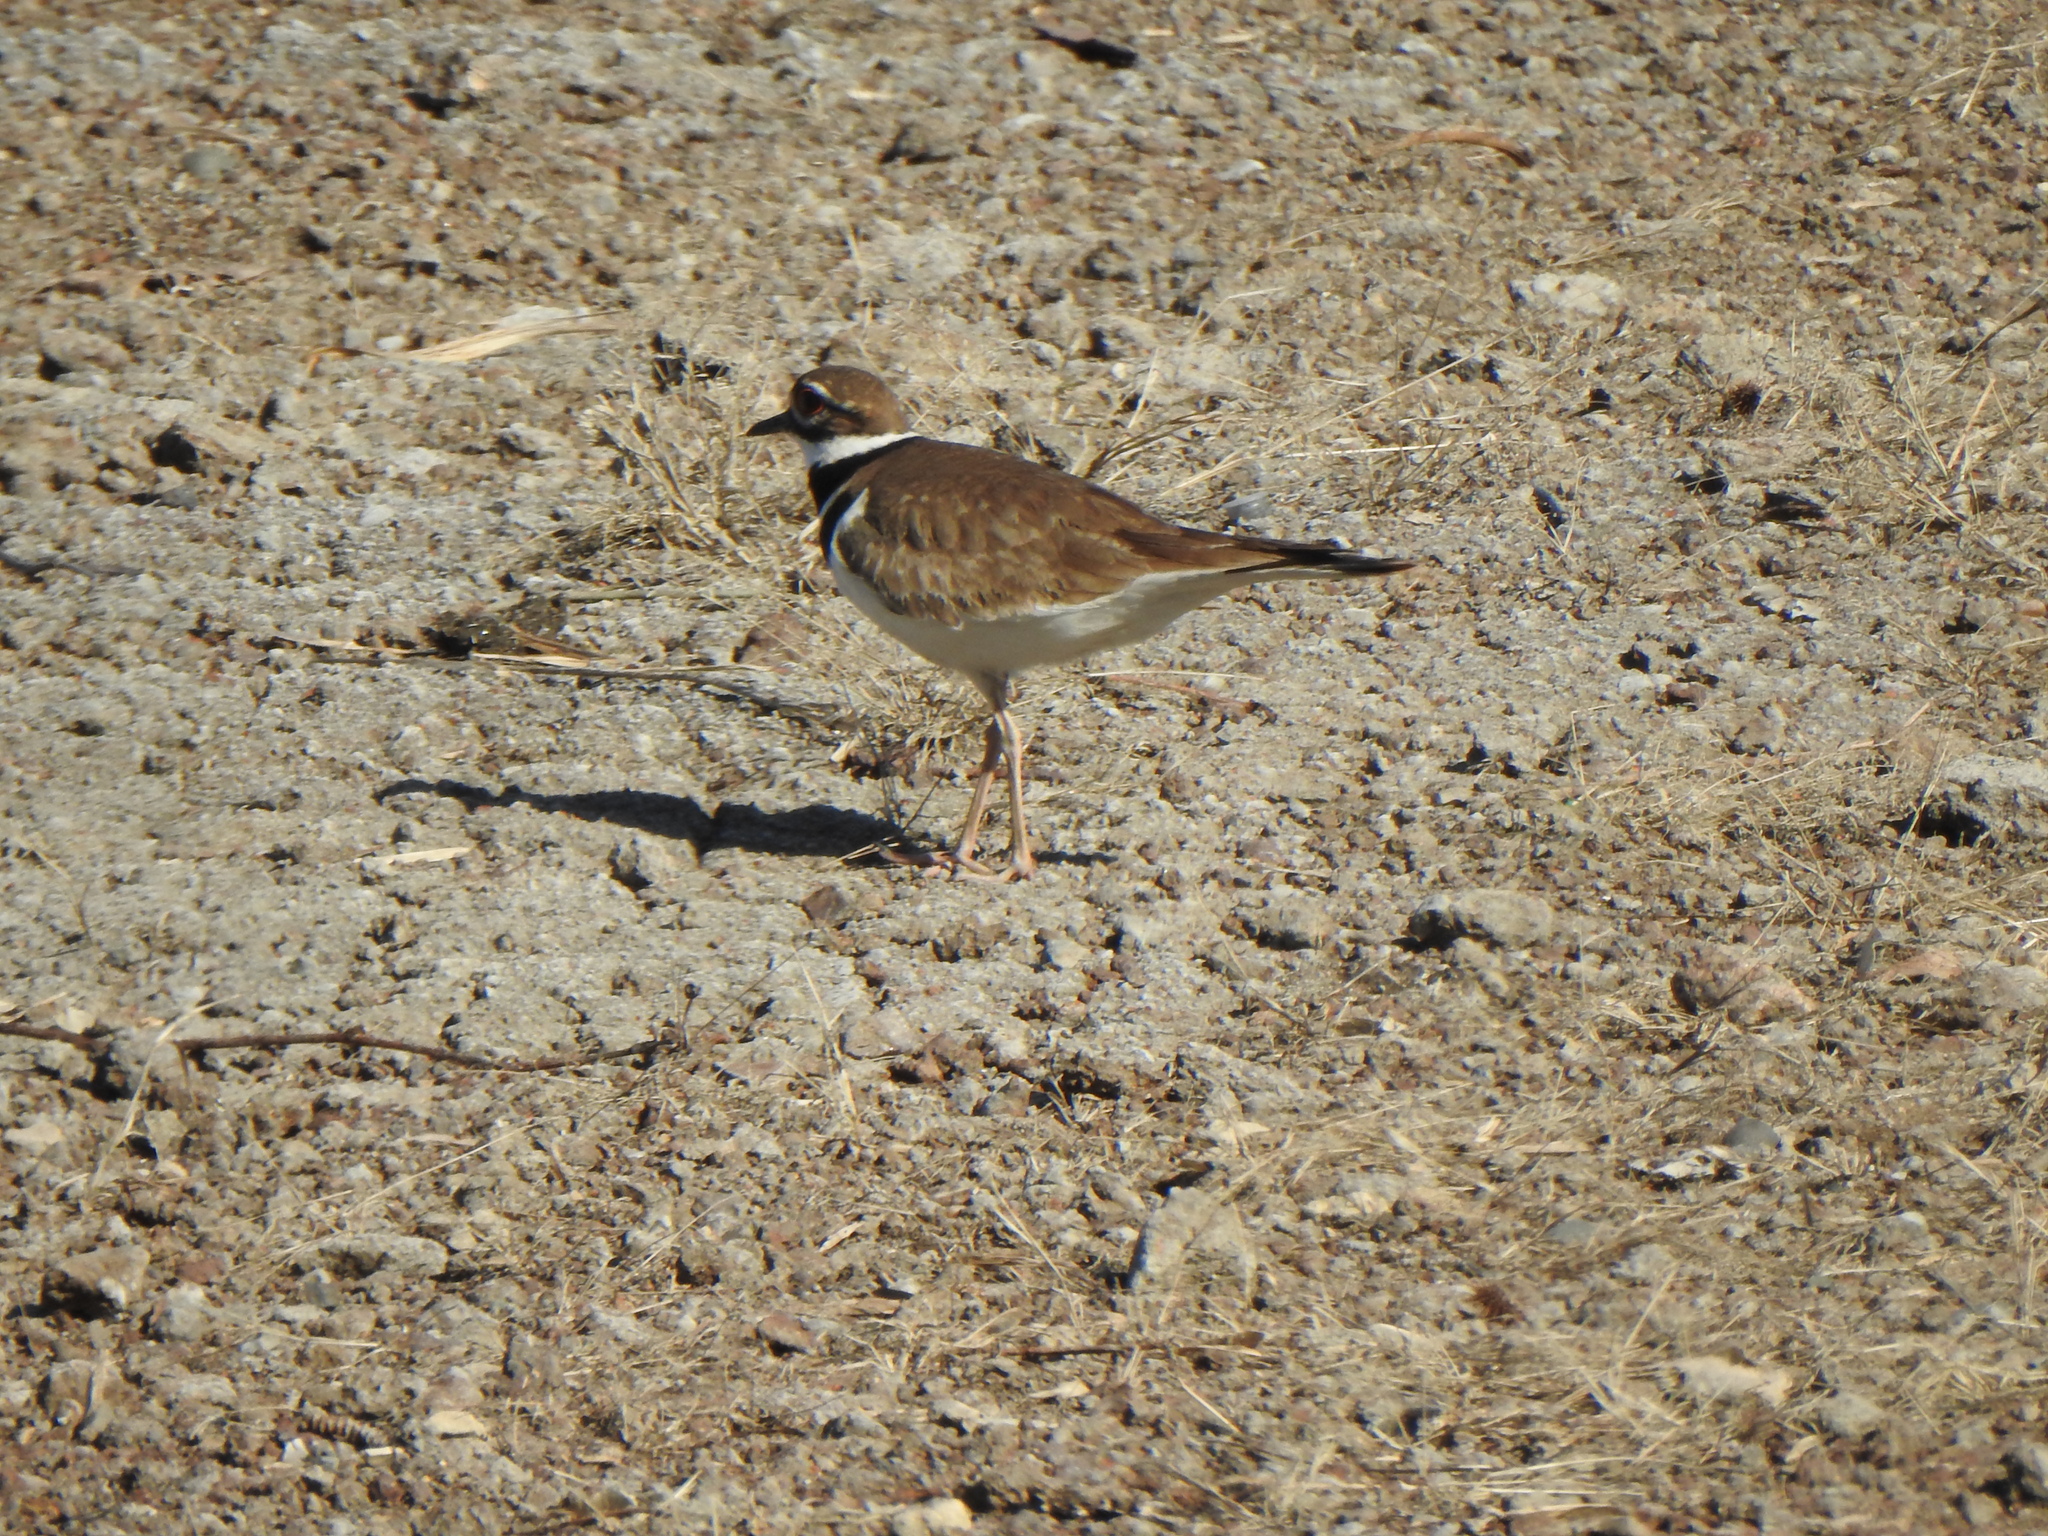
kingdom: Animalia
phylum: Chordata
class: Aves
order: Charadriiformes
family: Charadriidae
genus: Charadrius
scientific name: Charadrius vociferus
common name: Killdeer
